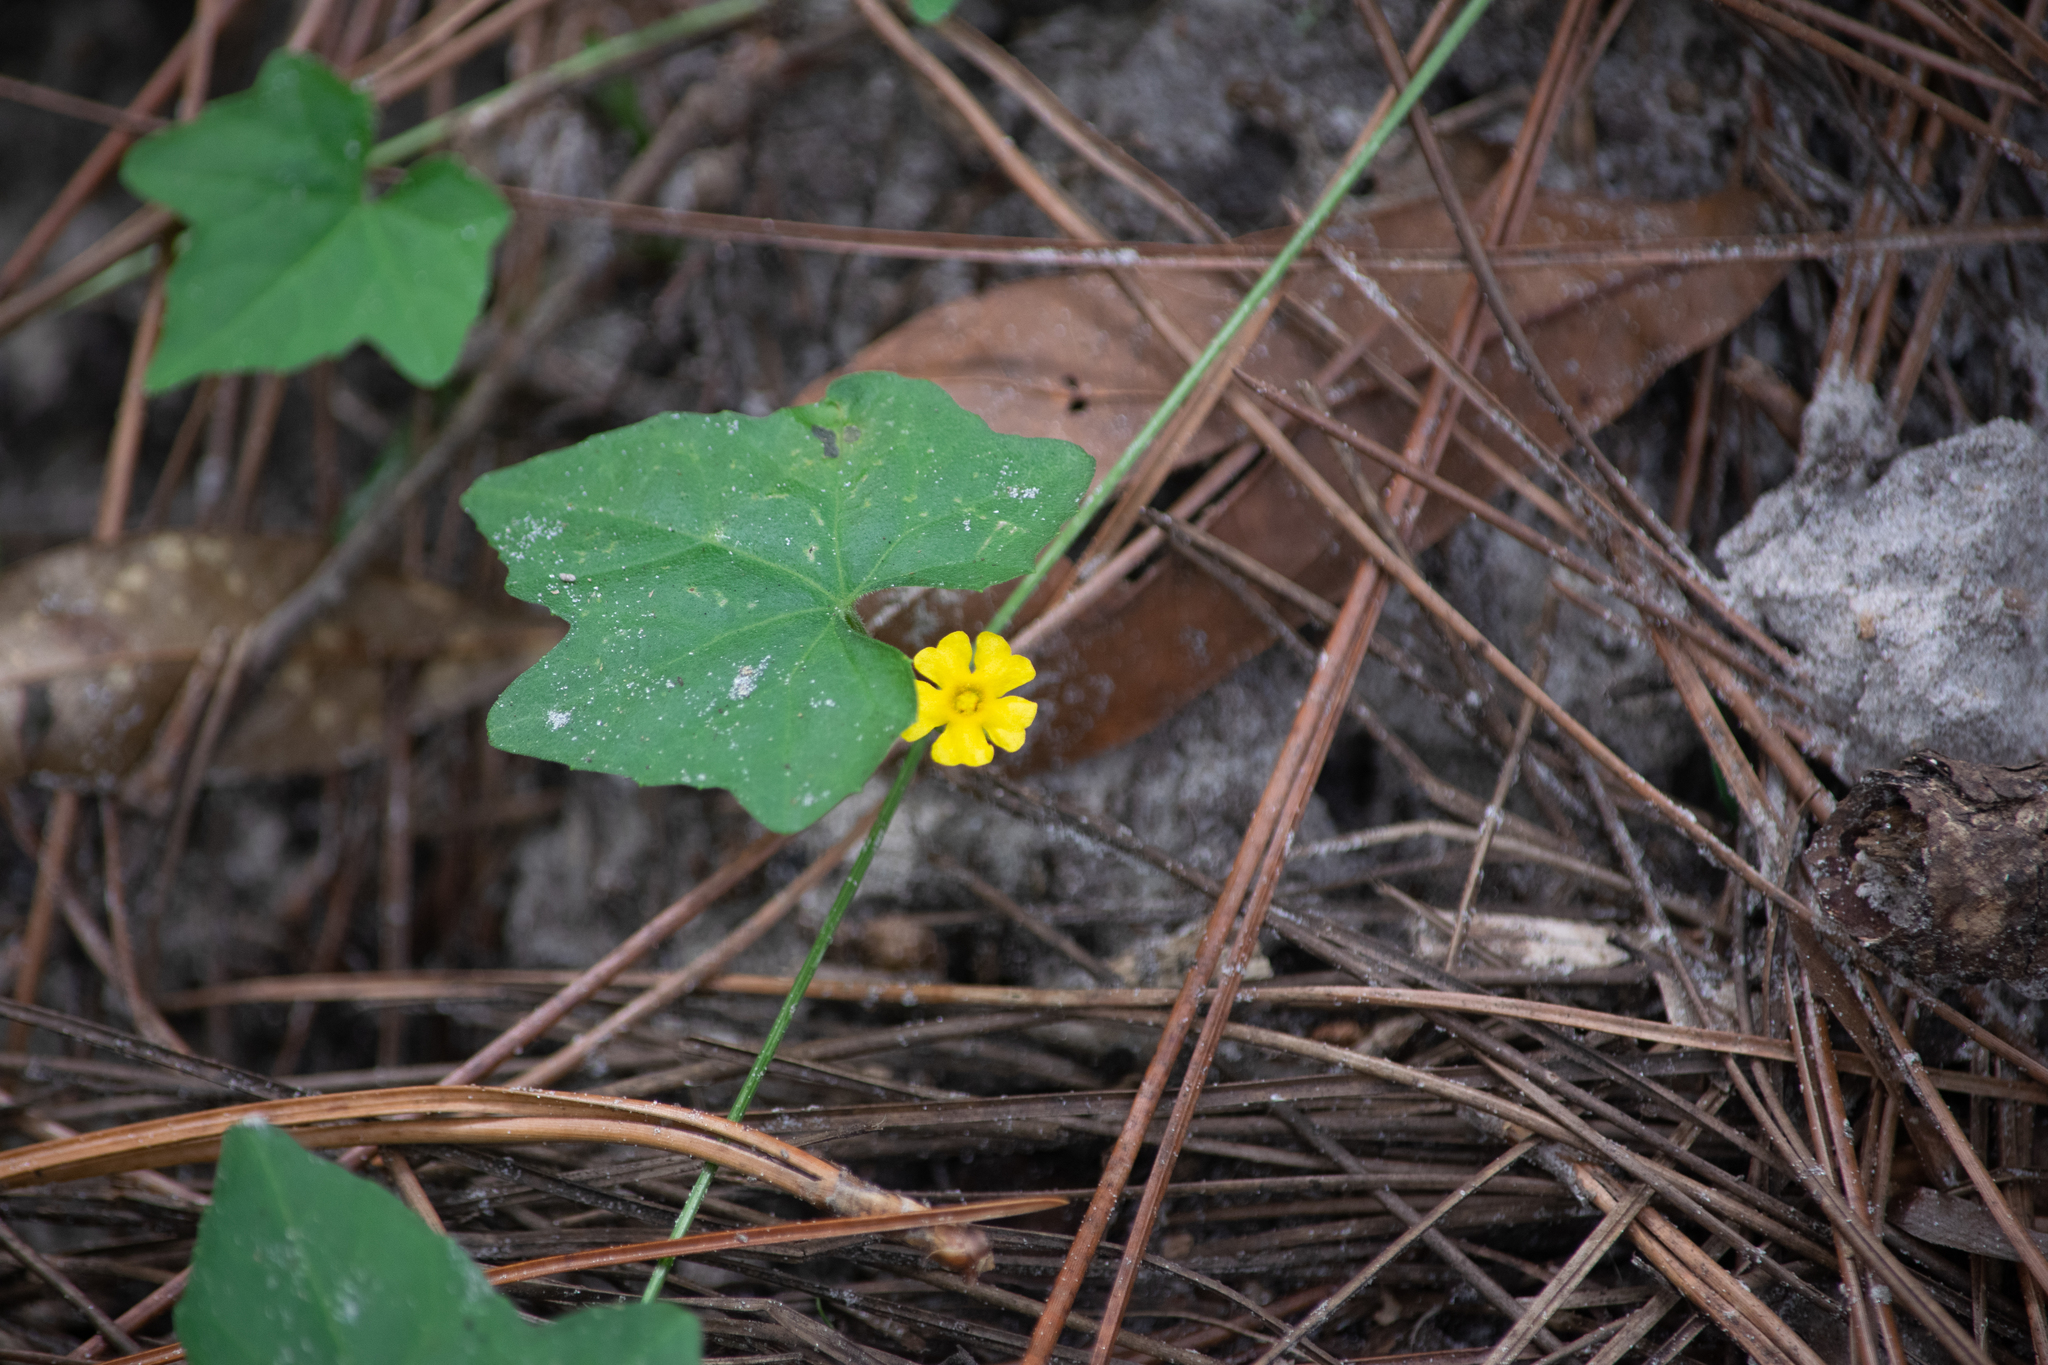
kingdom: Plantae
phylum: Tracheophyta
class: Magnoliopsida
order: Cucurbitales
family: Cucurbitaceae
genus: Melothria
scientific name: Melothria pendula
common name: Creeping-cucumber
